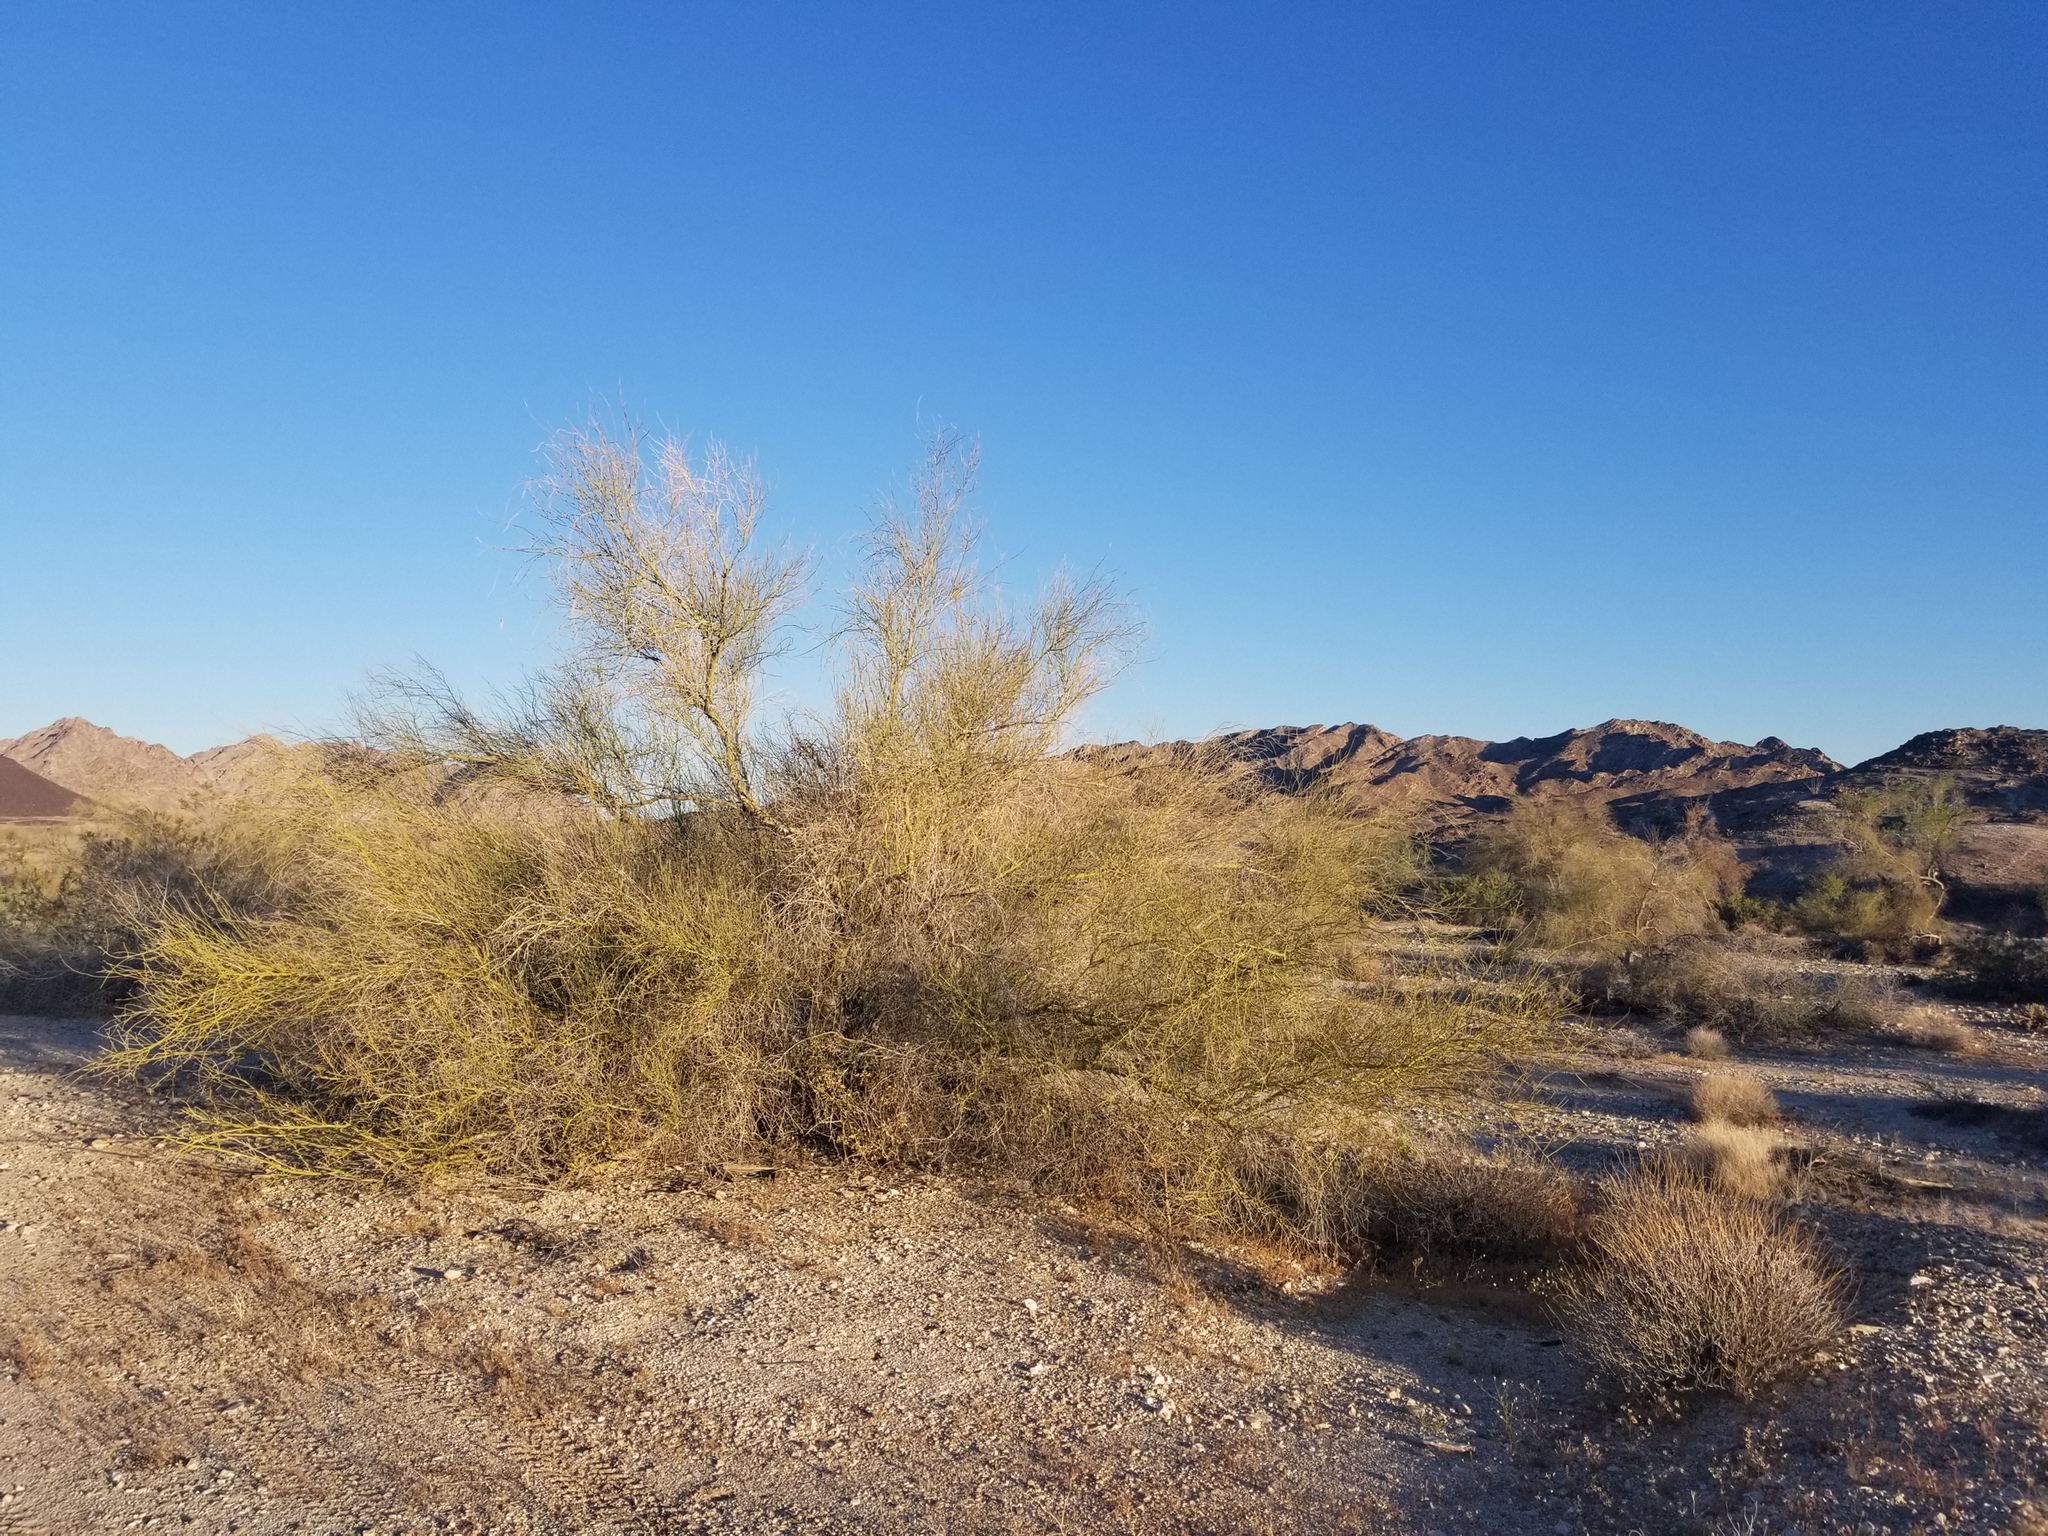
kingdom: Plantae
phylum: Tracheophyta
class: Magnoliopsida
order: Fabales
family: Fabaceae
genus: Parkinsonia
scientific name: Parkinsonia florida
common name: Blue paloverde
